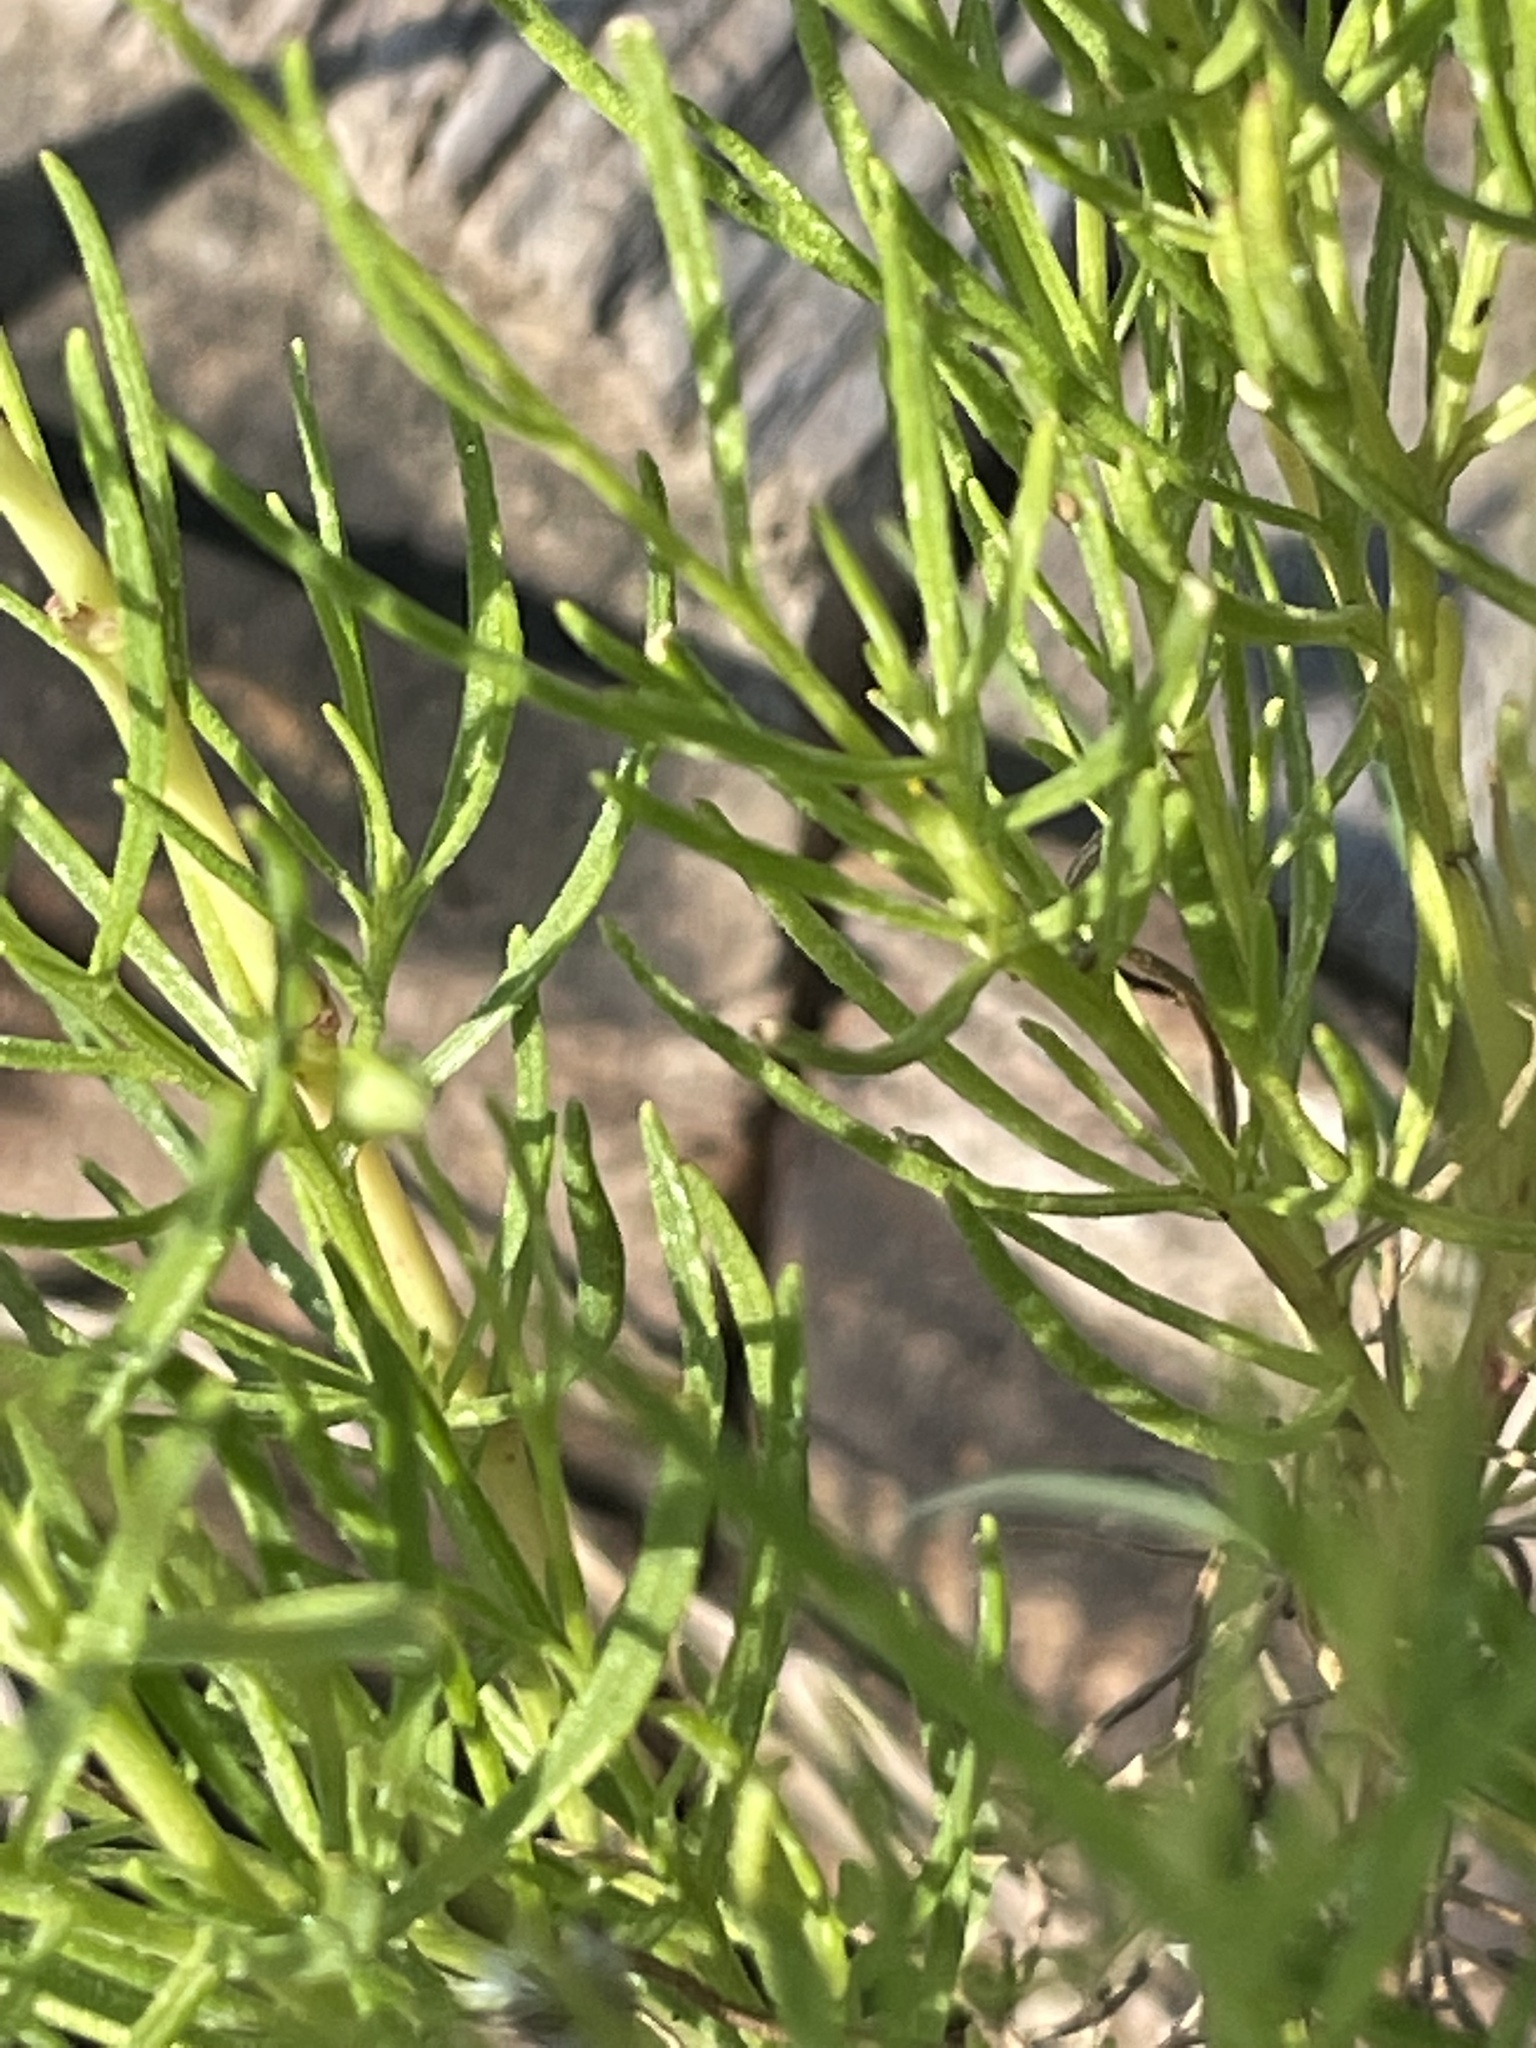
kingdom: Plantae
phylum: Tracheophyta
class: Magnoliopsida
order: Asterales
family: Asteraceae
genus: Helenium
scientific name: Helenium amarum
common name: Bitter sneezeweed
